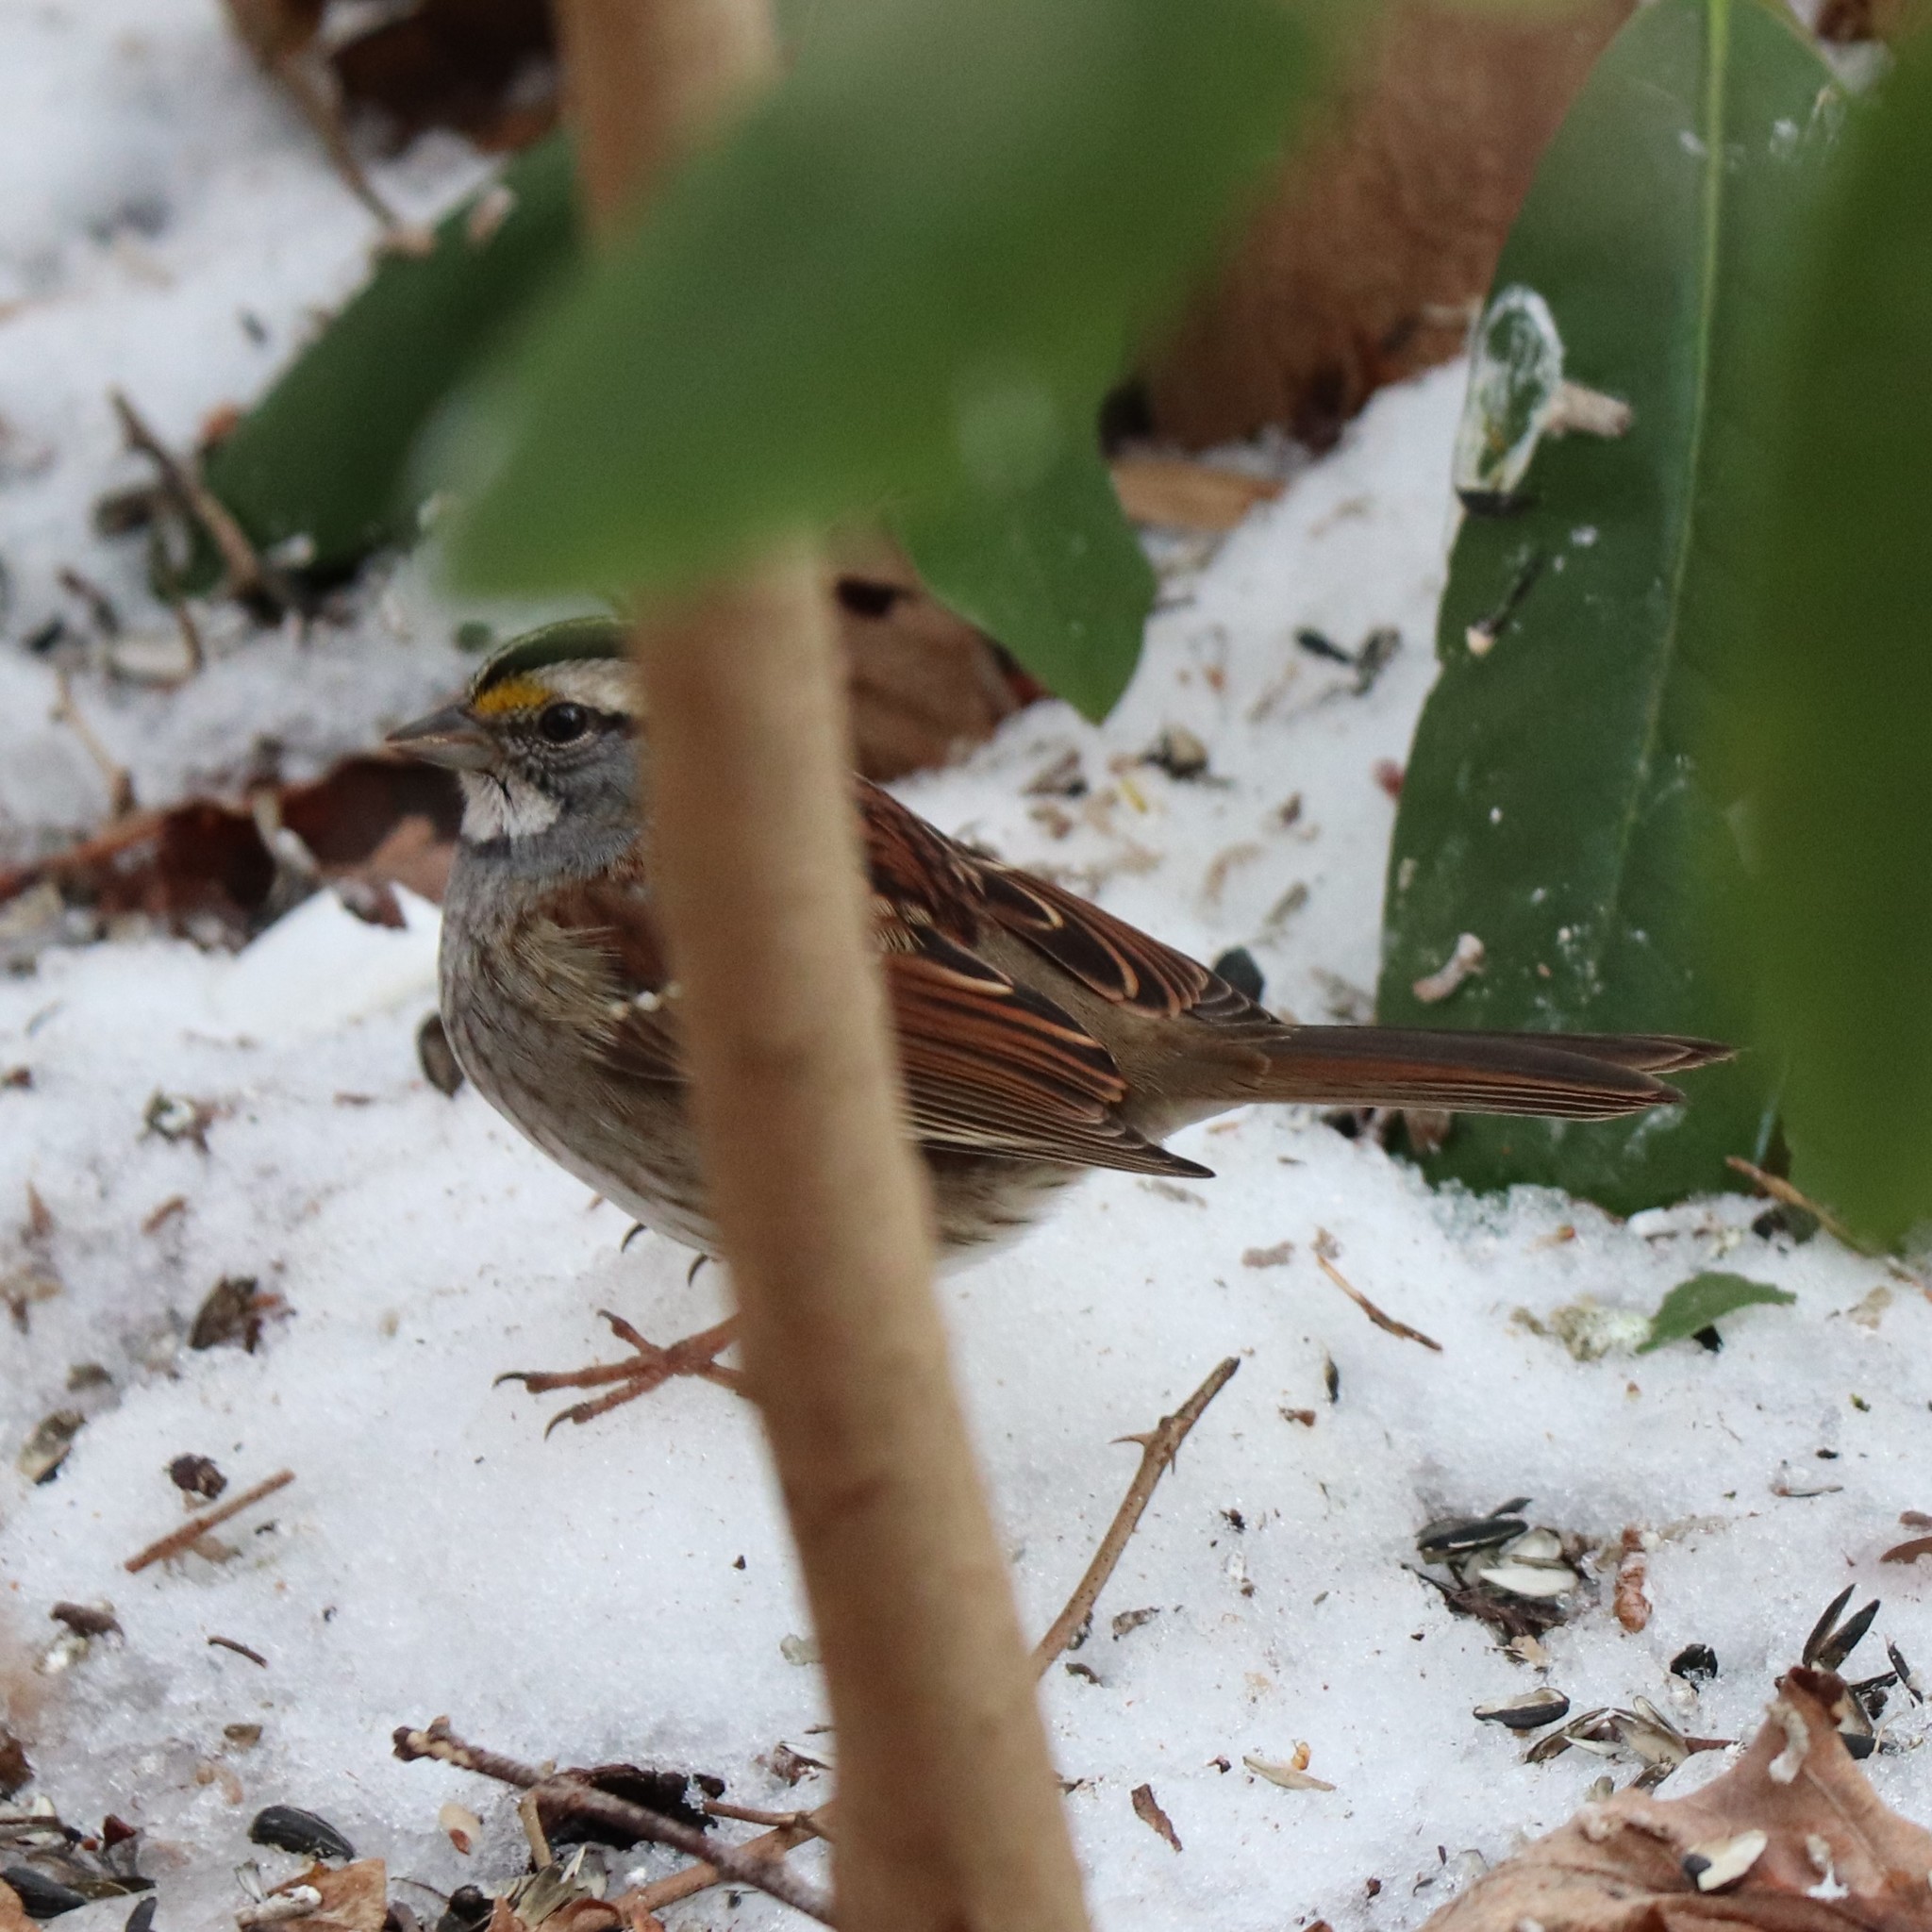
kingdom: Animalia
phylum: Chordata
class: Aves
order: Passeriformes
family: Passerellidae
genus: Zonotrichia
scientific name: Zonotrichia albicollis
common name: White-throated sparrow
